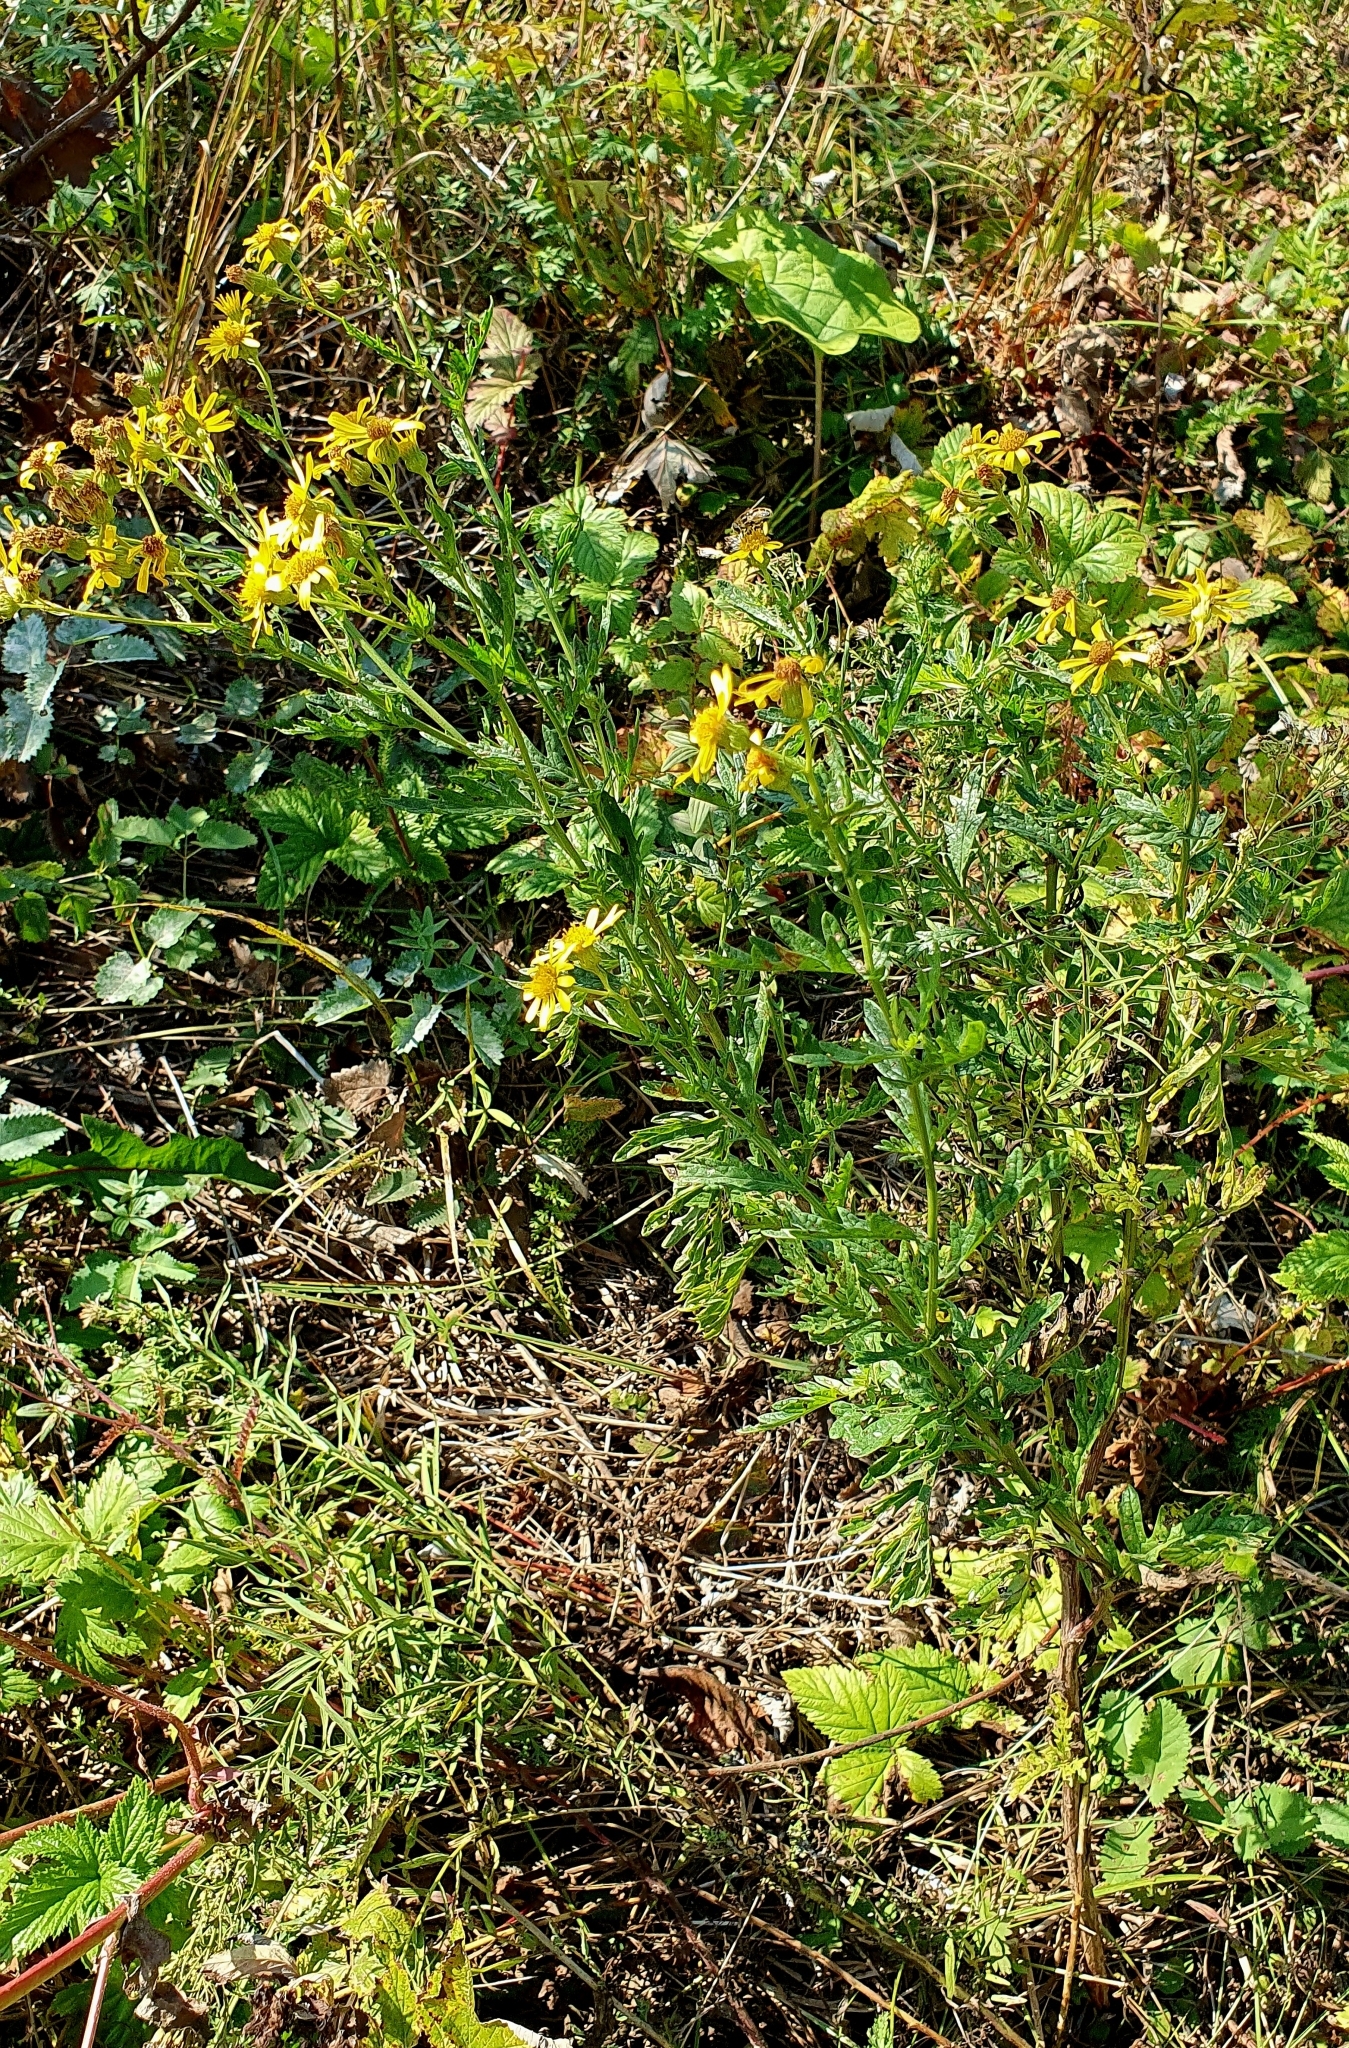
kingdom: Plantae
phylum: Tracheophyta
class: Magnoliopsida
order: Asterales
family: Asteraceae
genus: Jacobaea
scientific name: Jacobaea erucifolia
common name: Hoary ragwort
